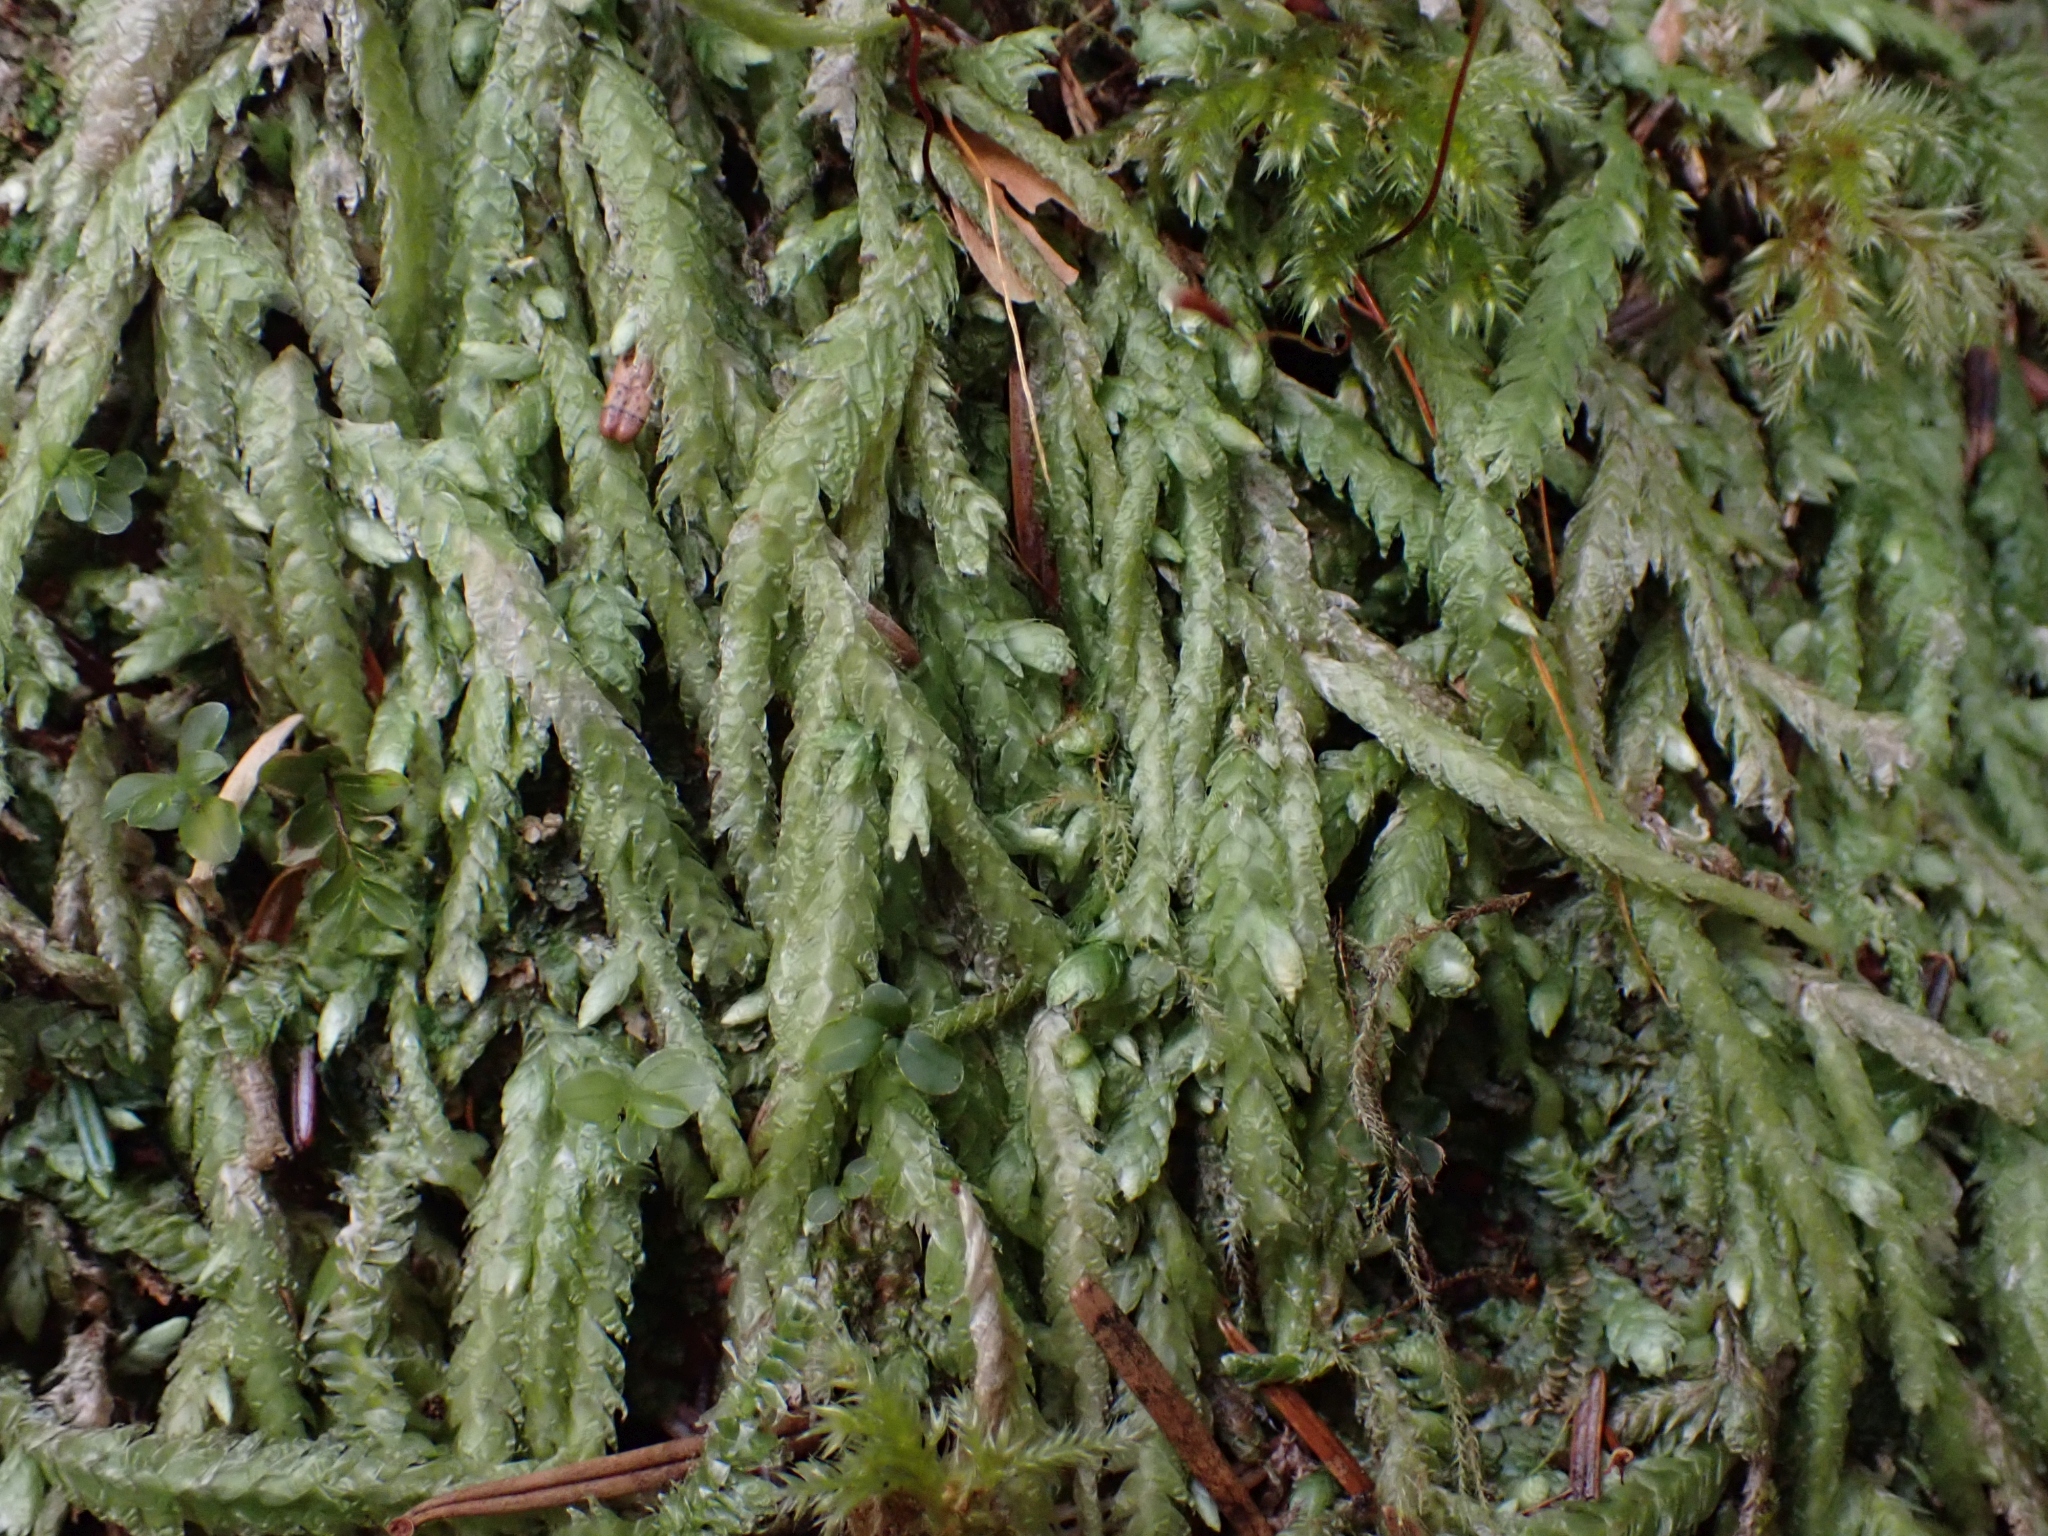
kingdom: Plantae
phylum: Bryophyta
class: Bryopsida
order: Hypnales
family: Plagiotheciaceae
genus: Plagiothecium
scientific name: Plagiothecium undulatum
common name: Waved silk-moss
